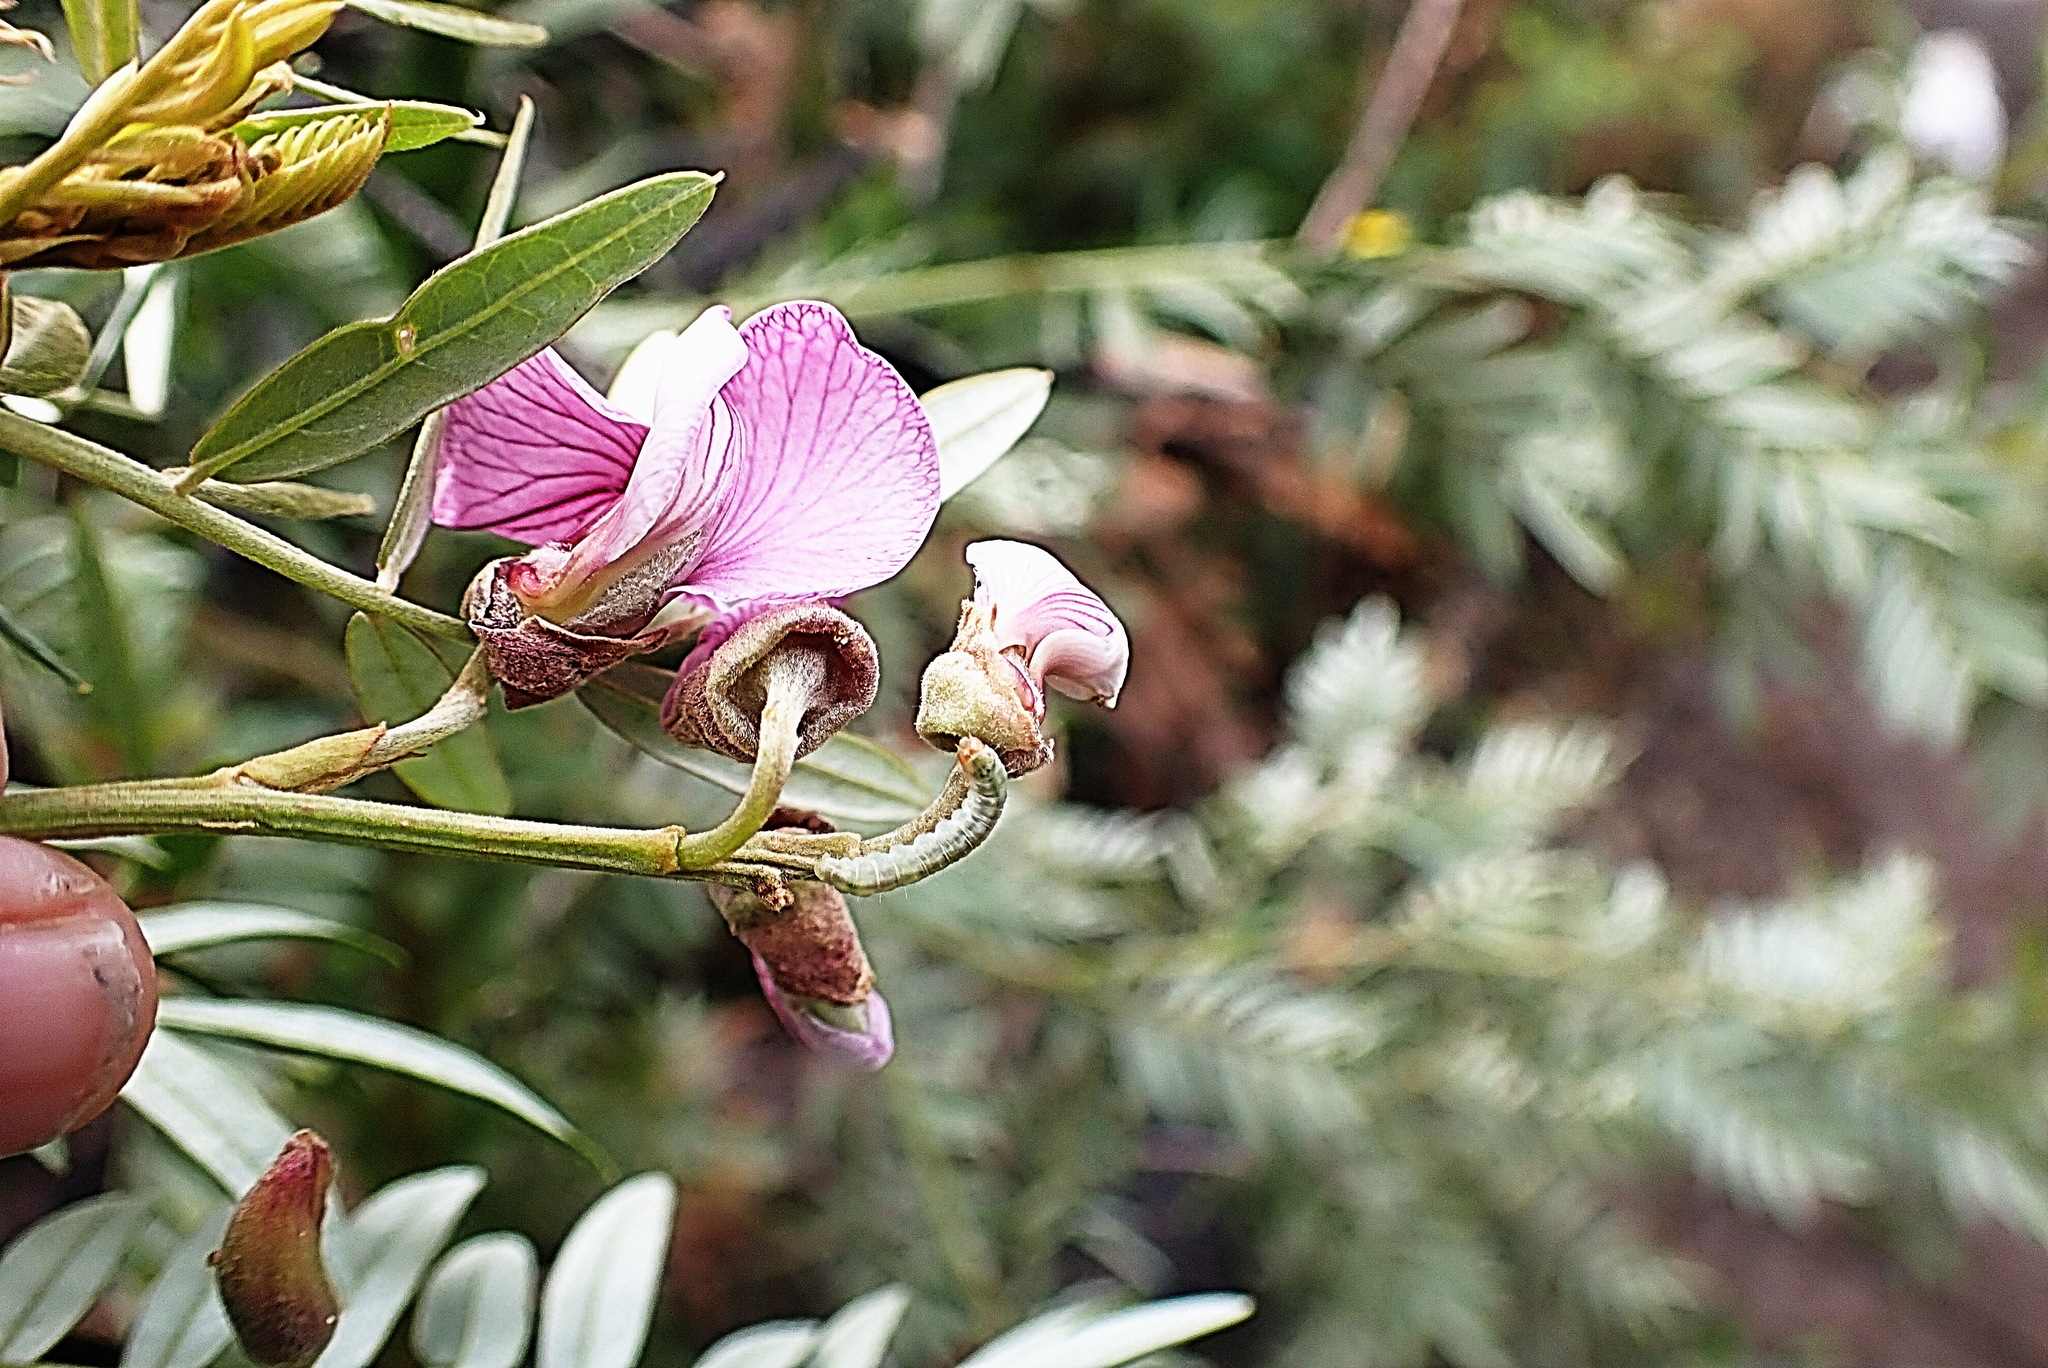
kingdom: Plantae
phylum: Tracheophyta
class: Magnoliopsida
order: Fabales
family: Fabaceae
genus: Virgilia
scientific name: Virgilia divaricata
